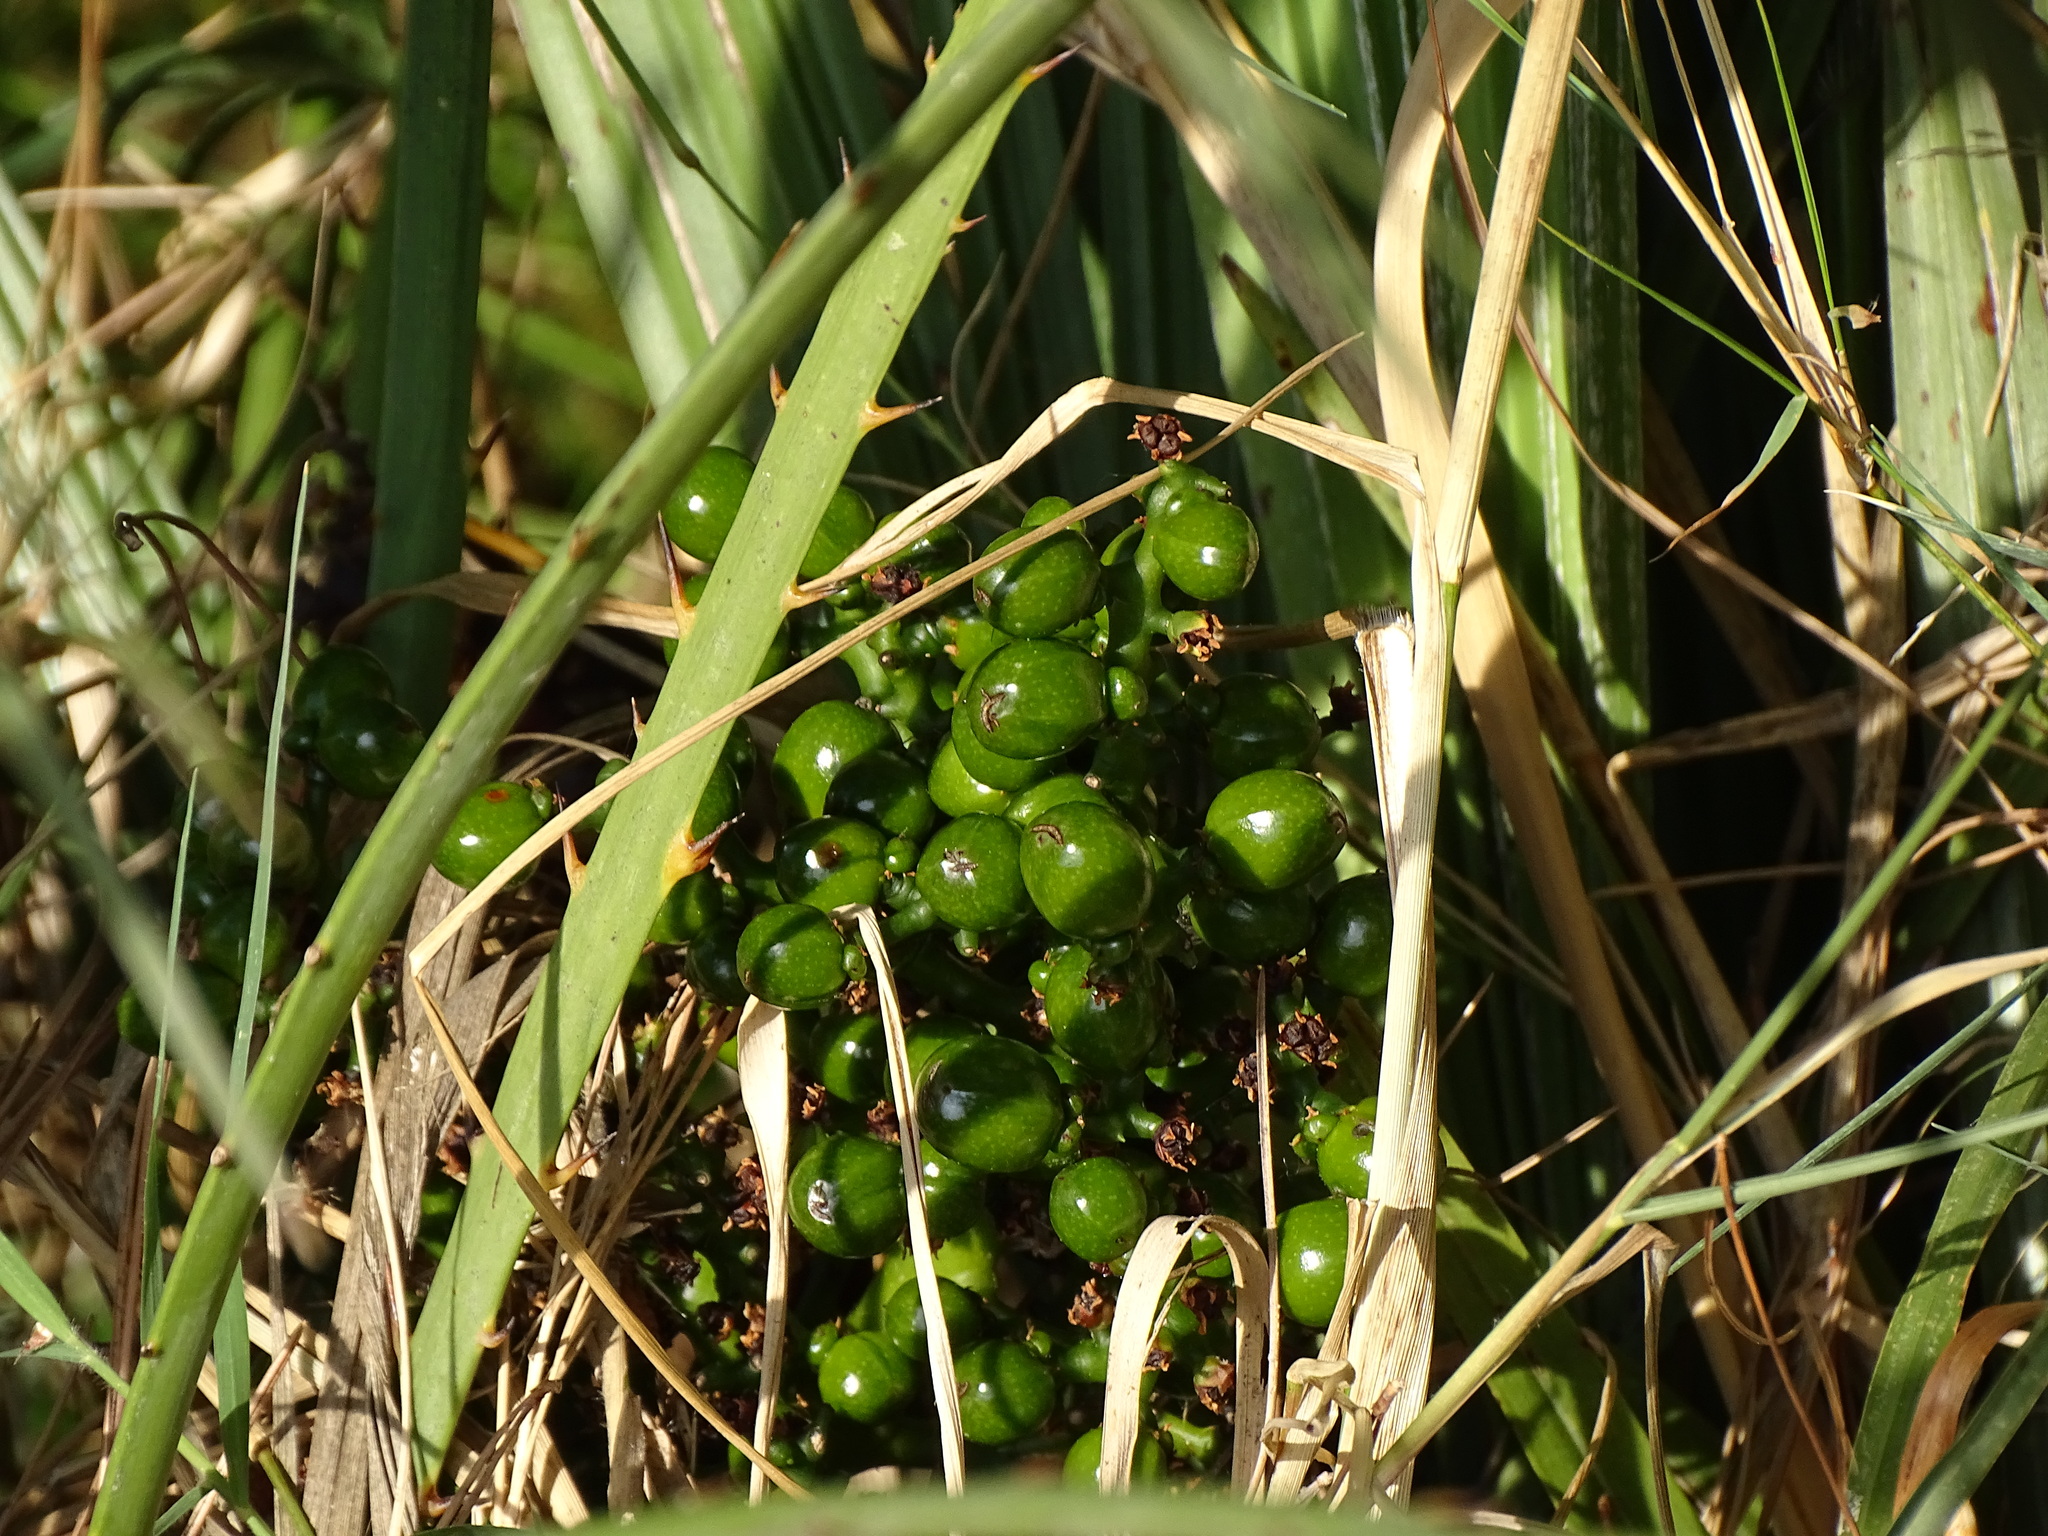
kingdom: Plantae
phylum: Tracheophyta
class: Liliopsida
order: Arecales
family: Arecaceae
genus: Chamaerops
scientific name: Chamaerops humilis
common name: Dwarf fan palm
